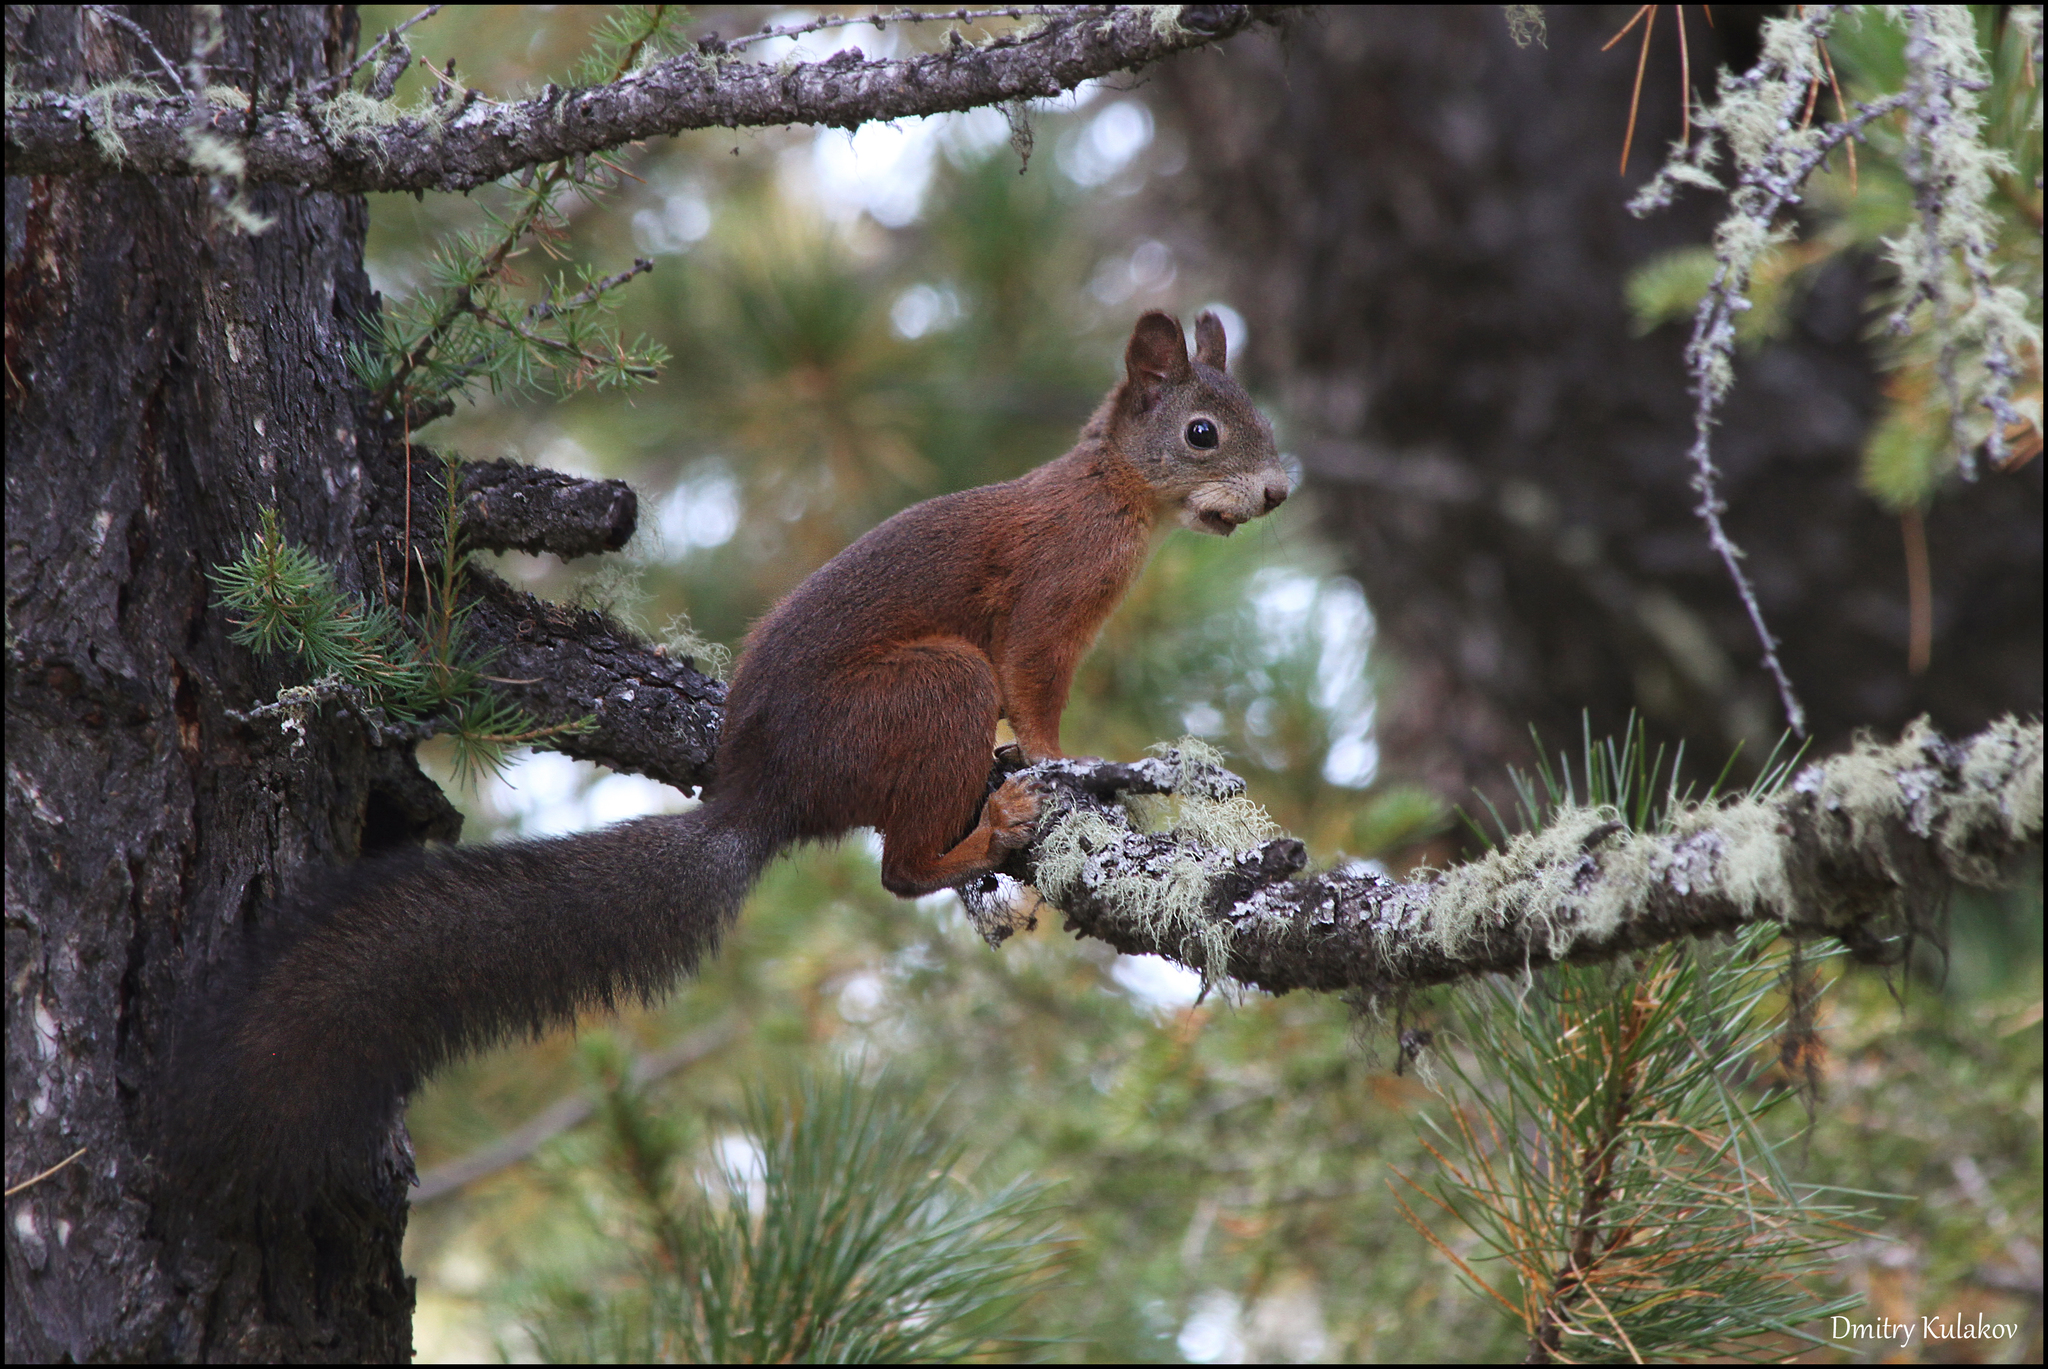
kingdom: Animalia
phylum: Chordata
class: Mammalia
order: Rodentia
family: Sciuridae
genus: Sciurus
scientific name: Sciurus vulgaris
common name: Eurasian red squirrel
